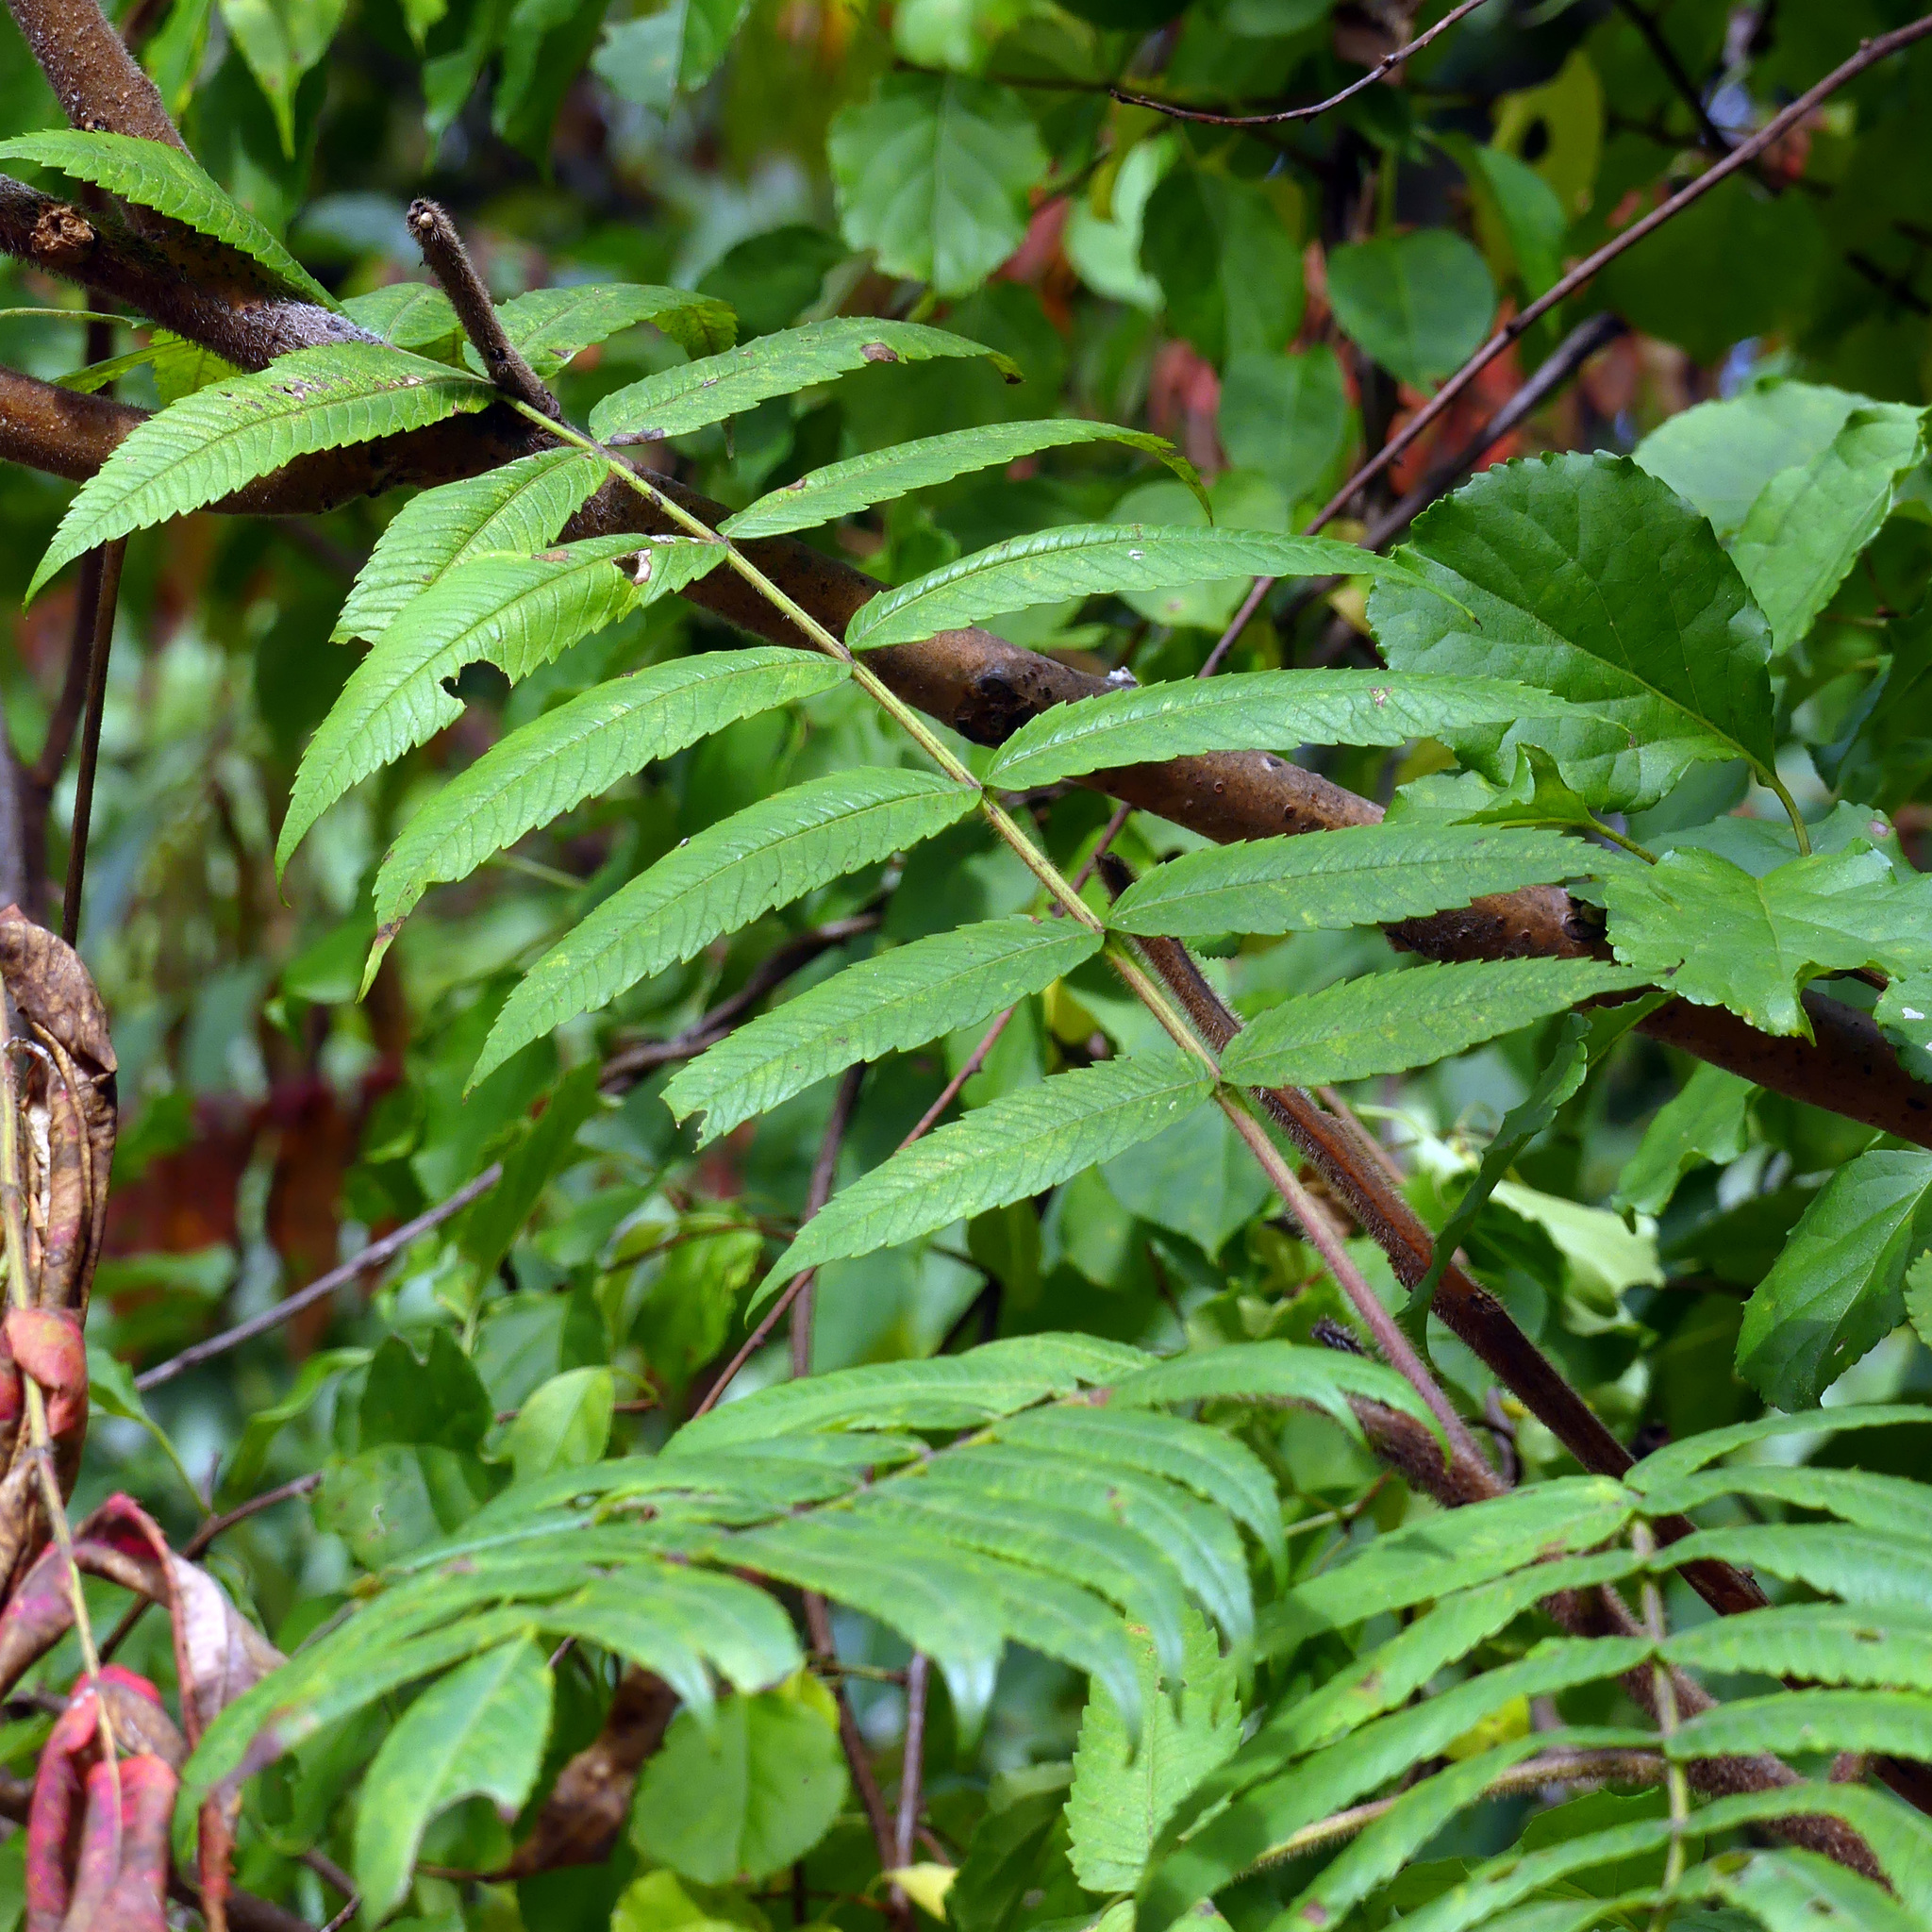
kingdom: Plantae
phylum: Tracheophyta
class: Magnoliopsida
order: Sapindales
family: Anacardiaceae
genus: Rhus
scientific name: Rhus typhina
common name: Staghorn sumac
